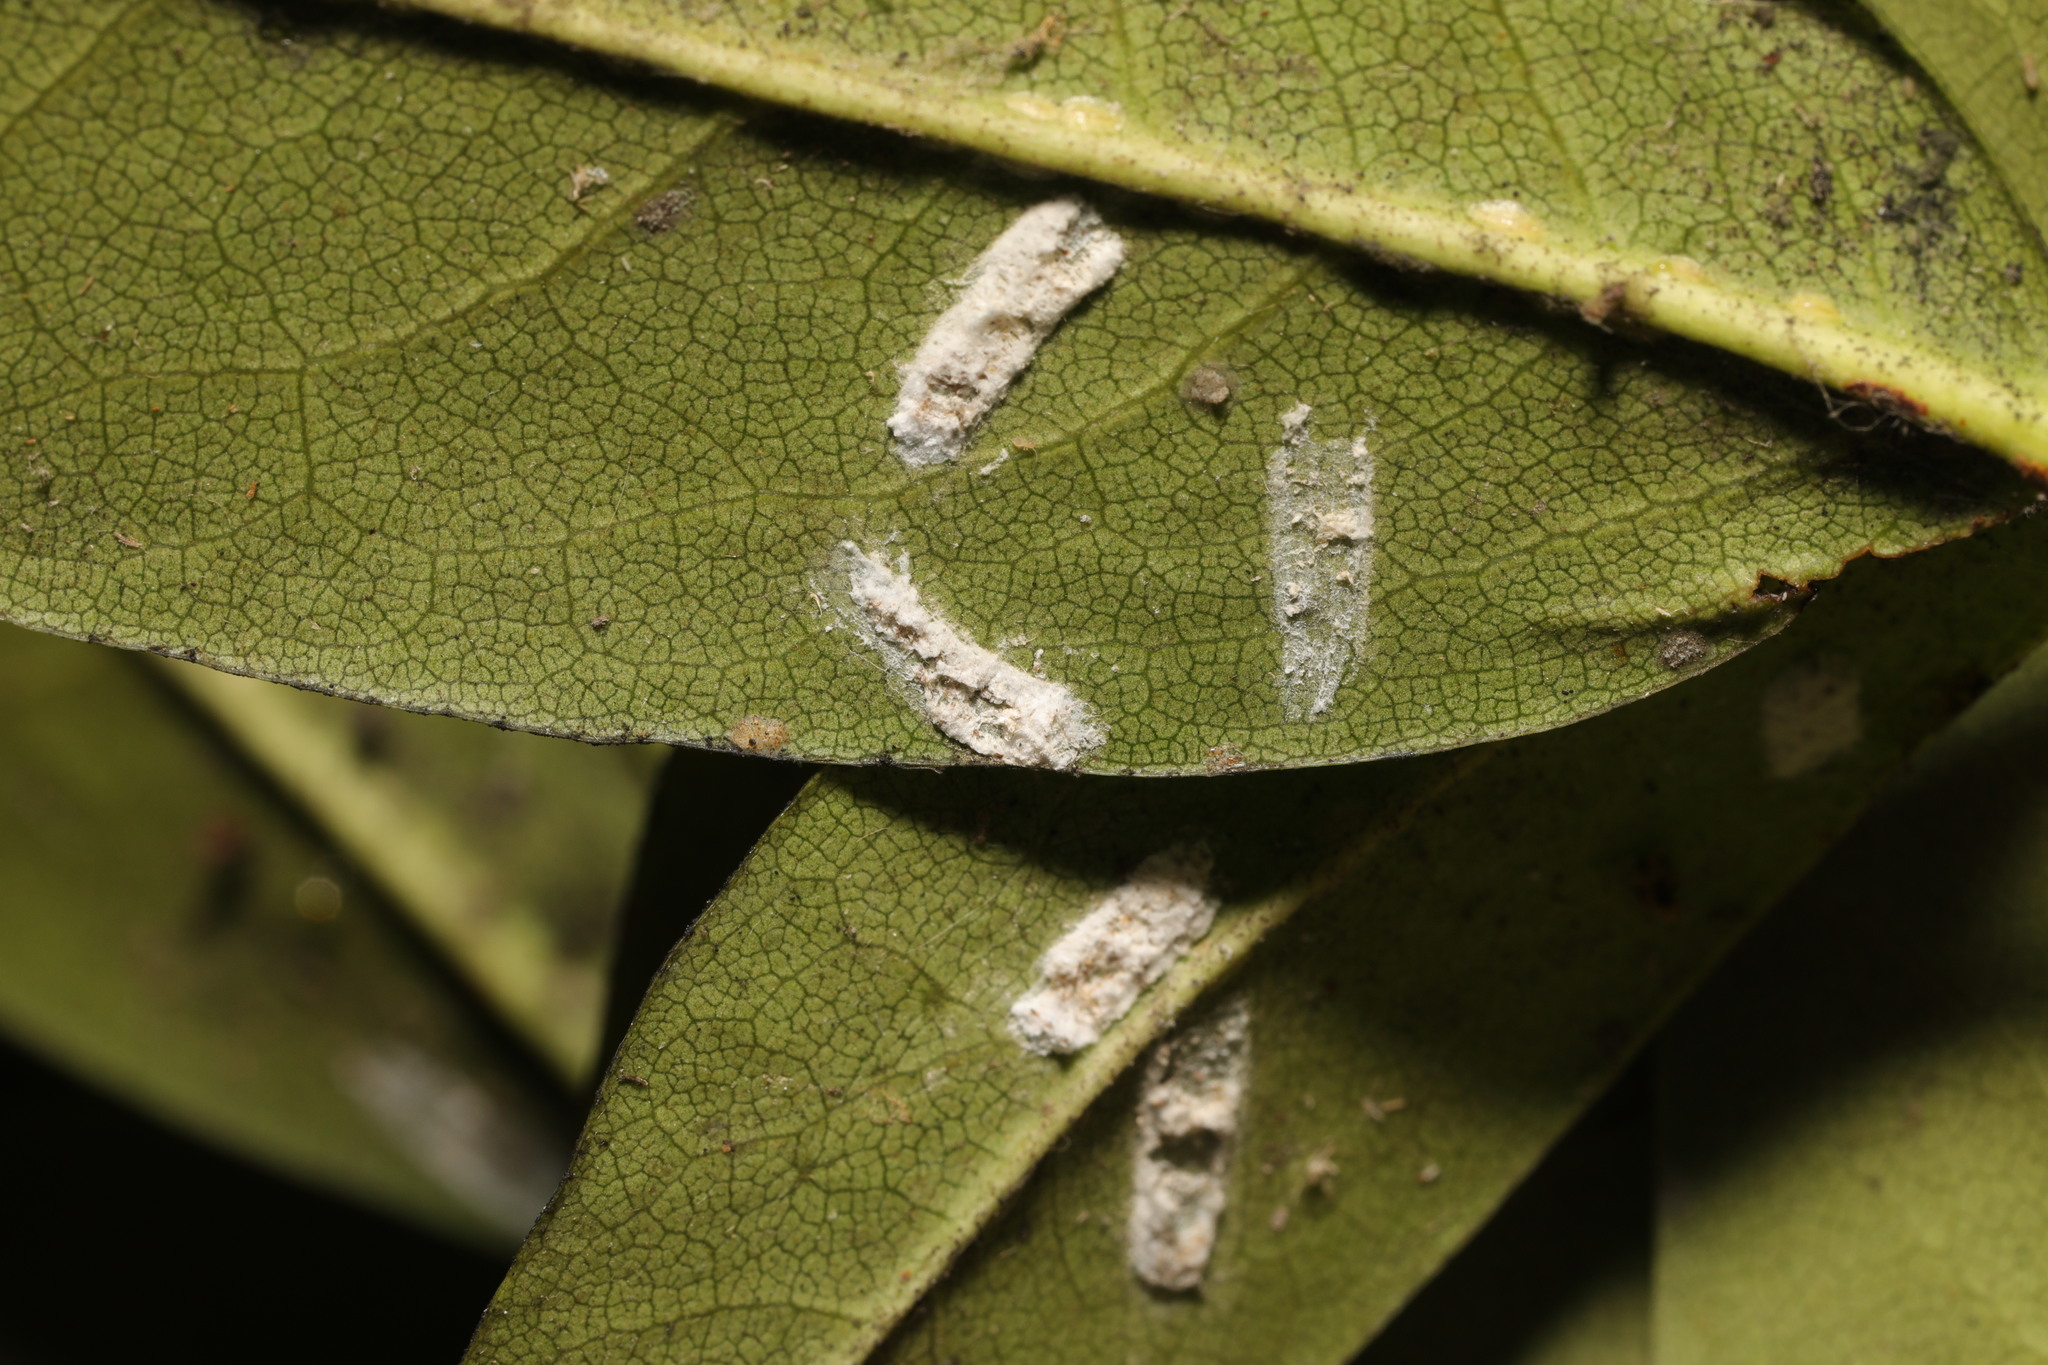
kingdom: Animalia
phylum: Arthropoda
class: Insecta
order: Hemiptera
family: Coccidae
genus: Pulvinaria
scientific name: Pulvinaria floccifera
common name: Cottony camellia scale
